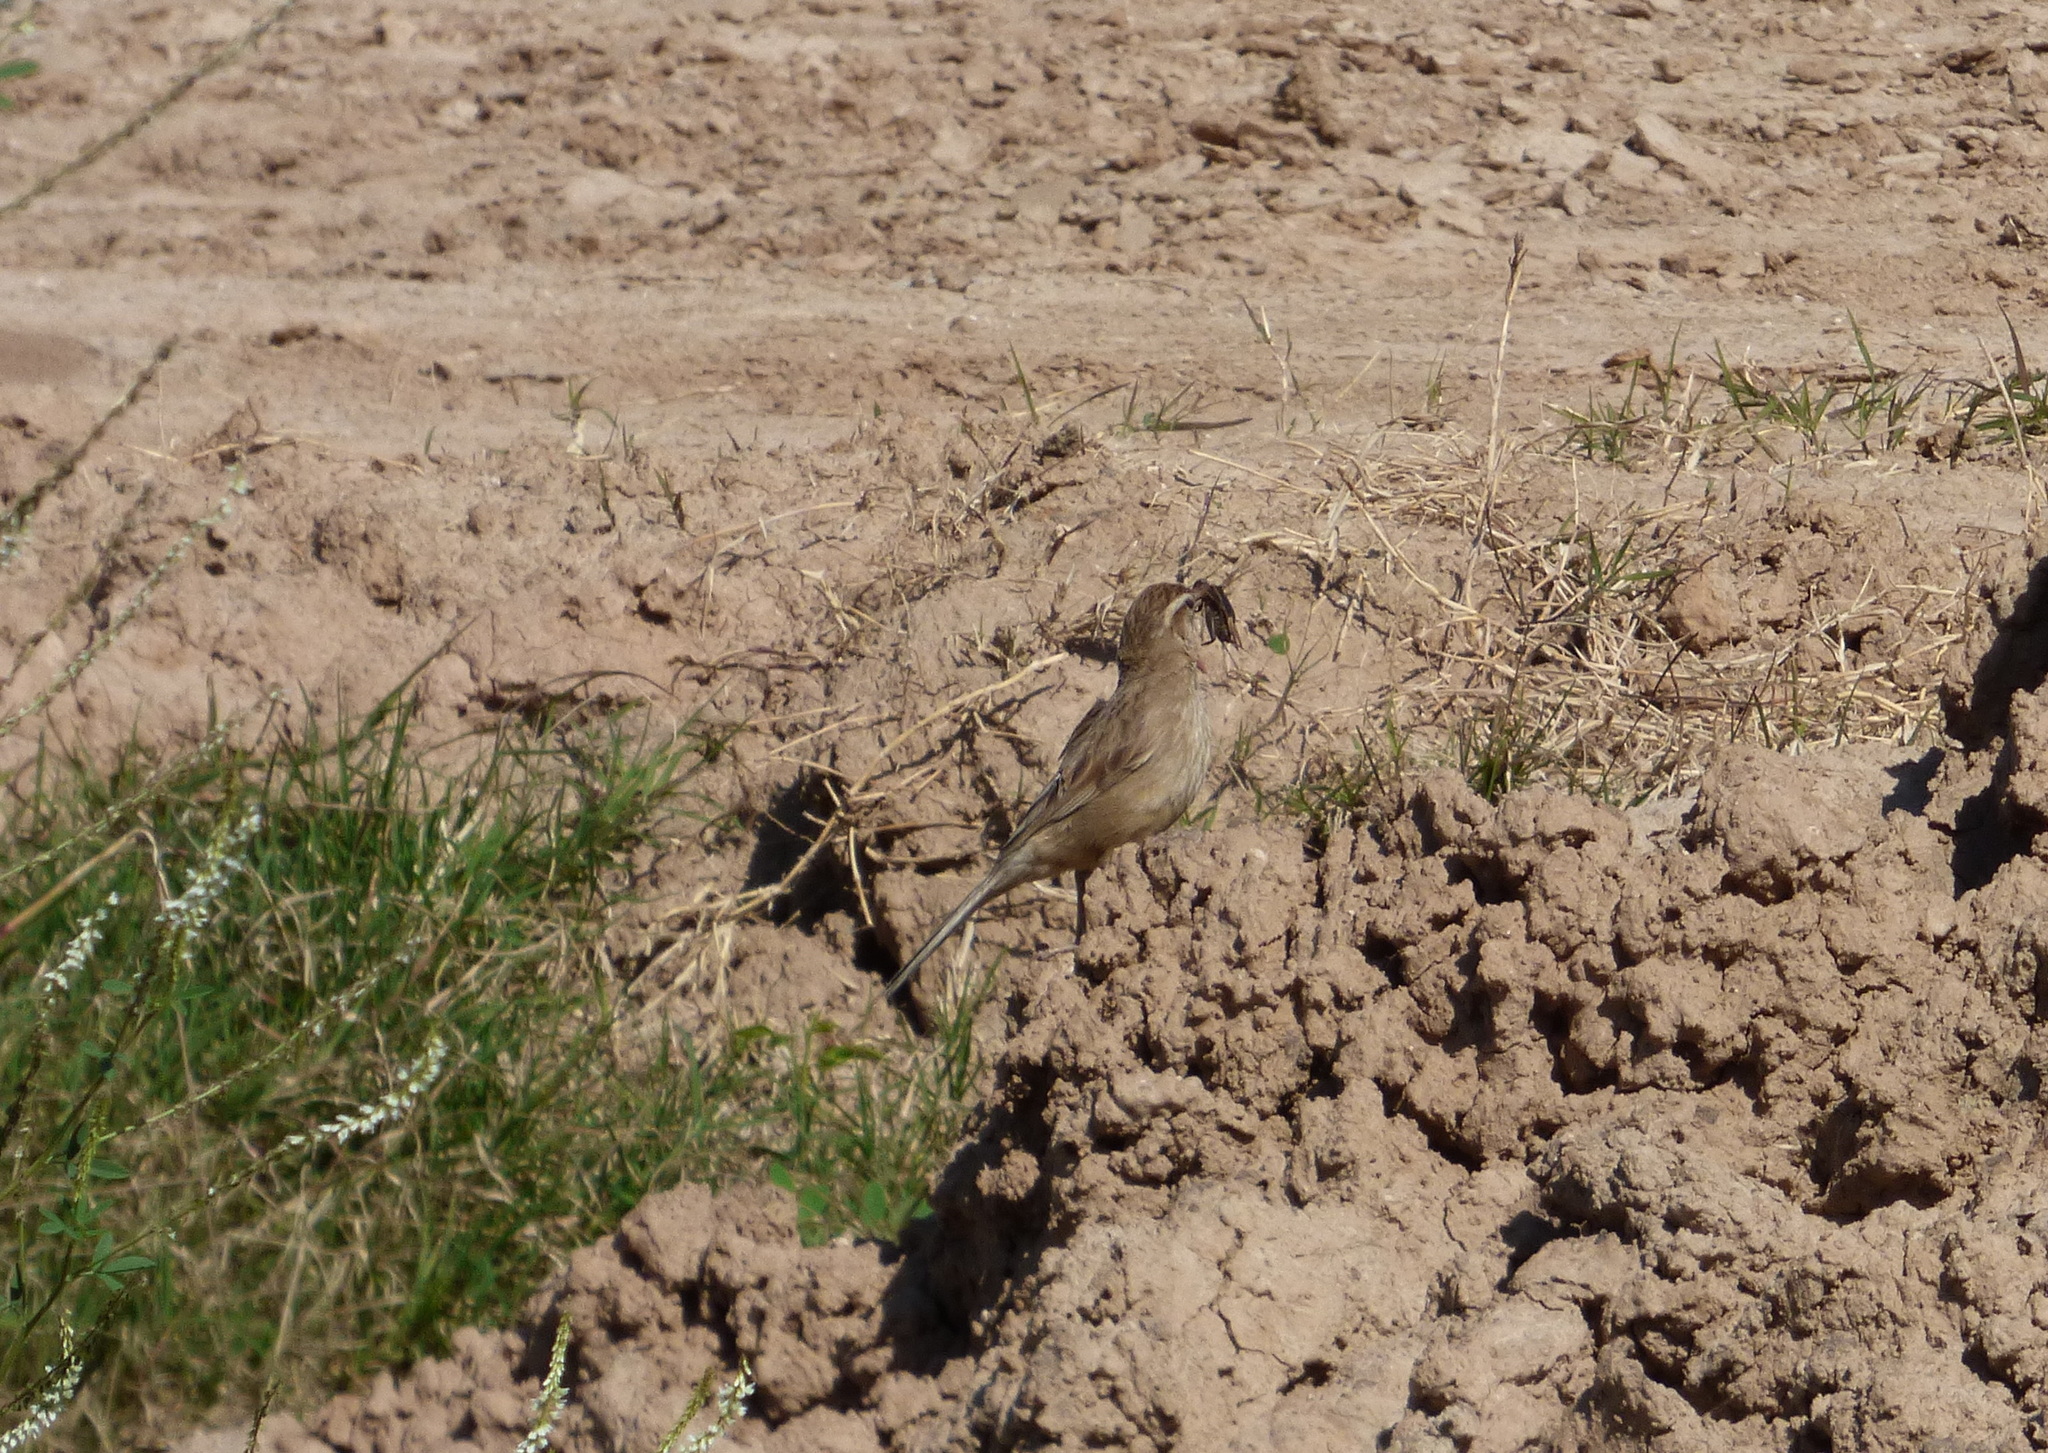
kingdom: Animalia
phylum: Chordata
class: Aves
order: Passeriformes
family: Furnariidae
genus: Anumbius
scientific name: Anumbius annumbi
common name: Firewood-gatherer
